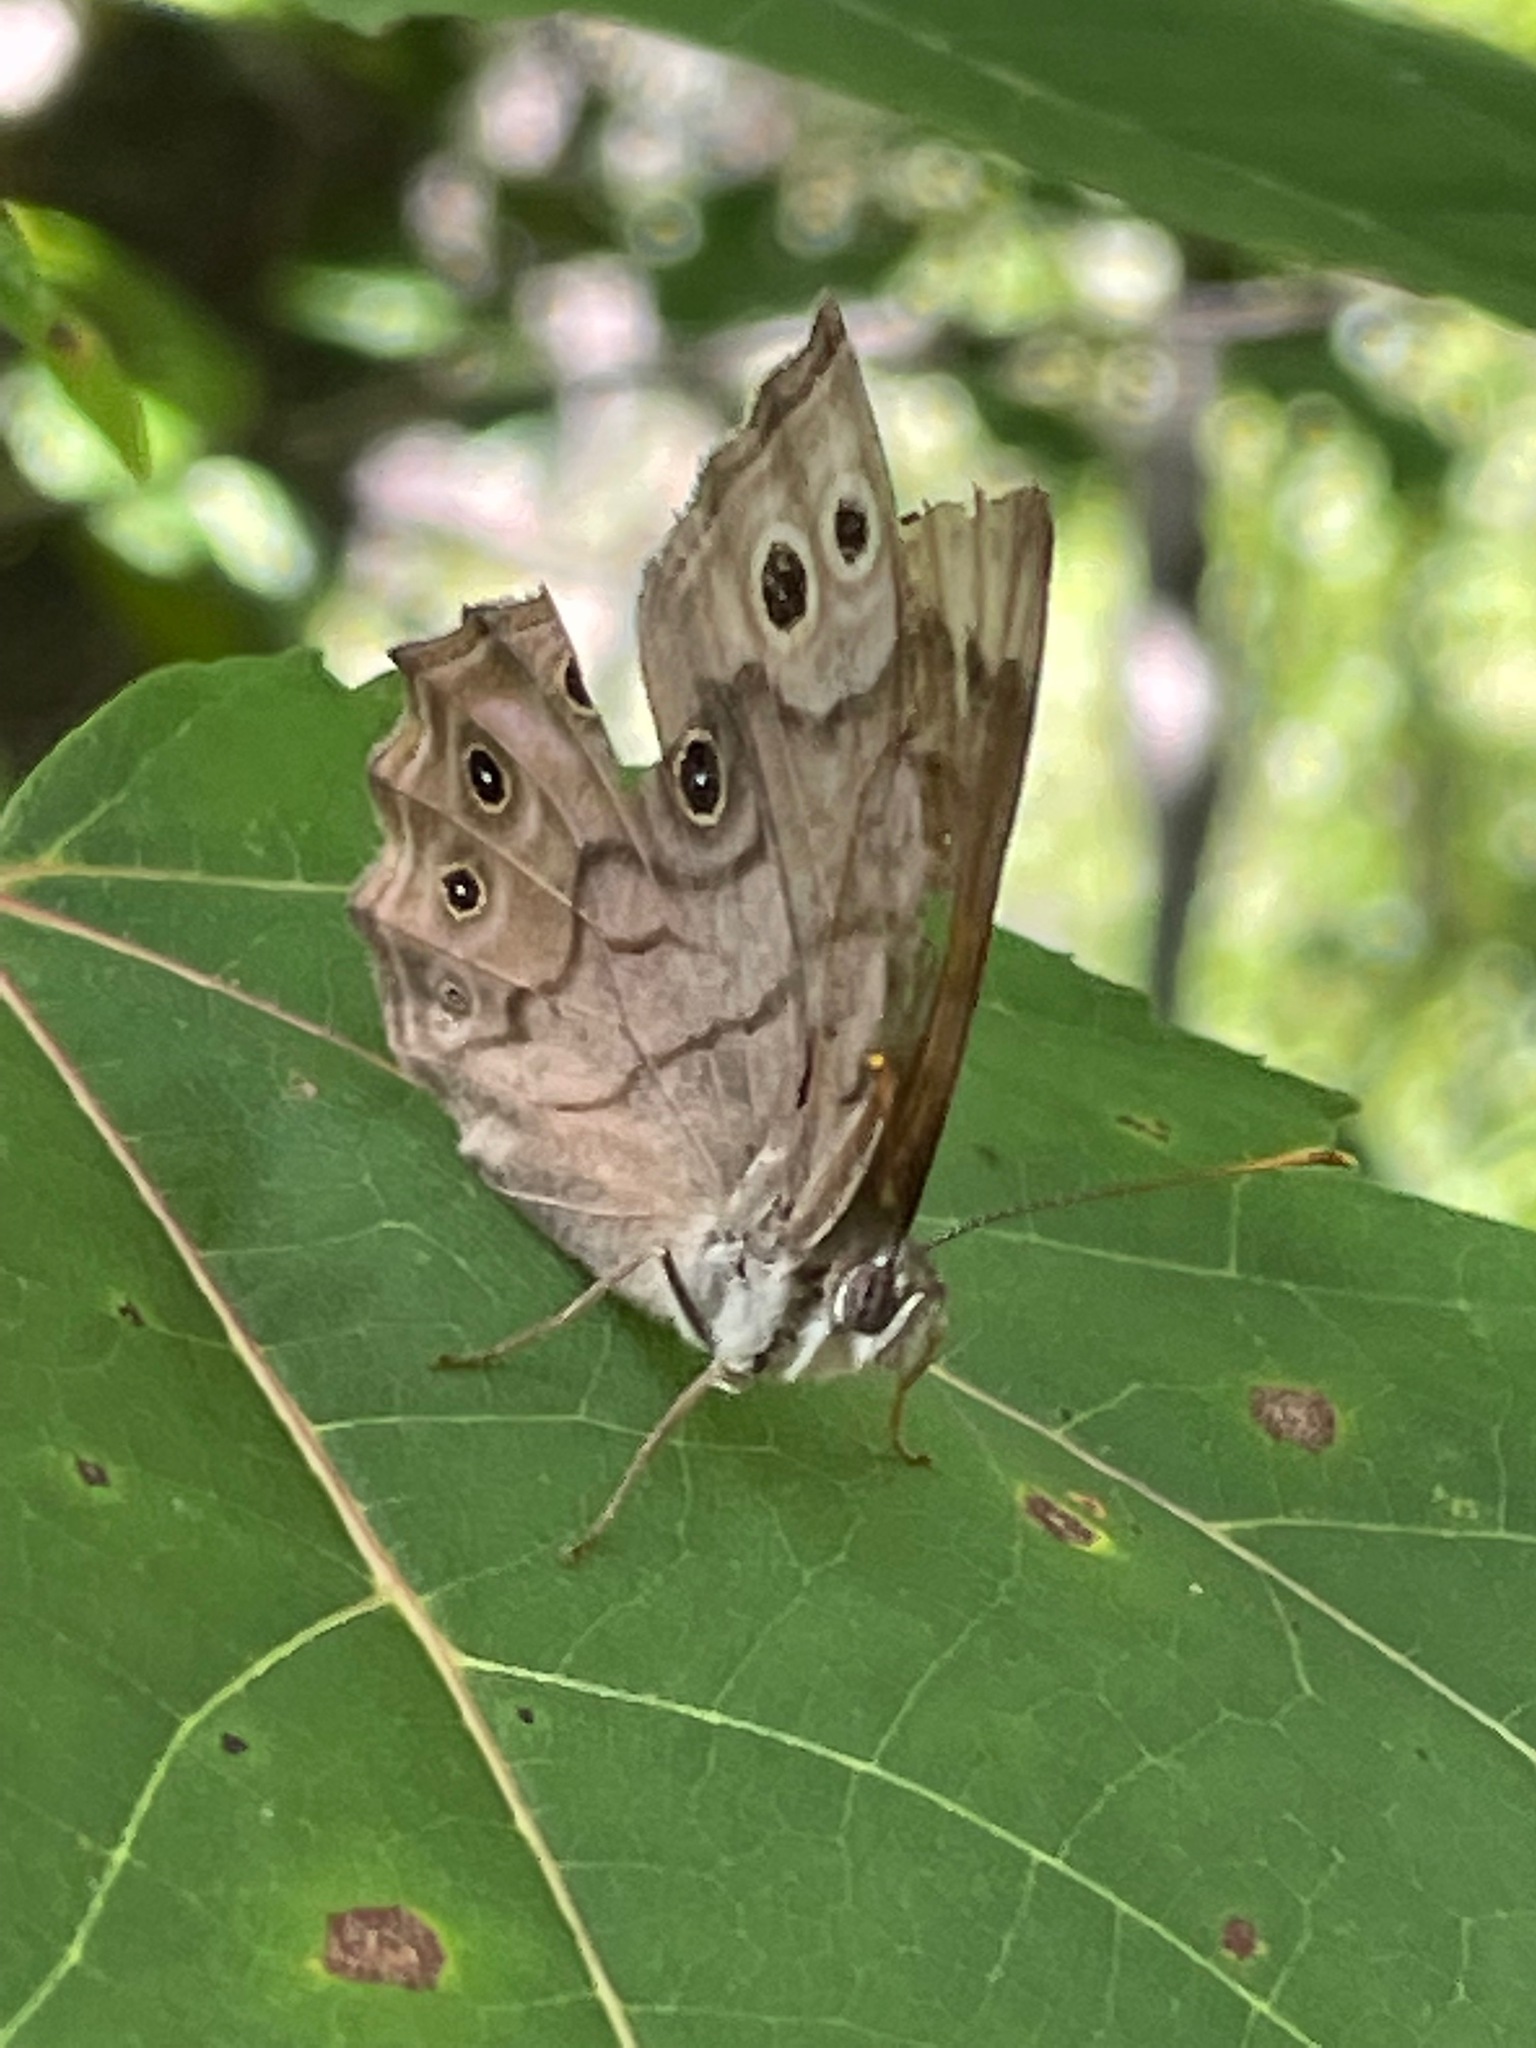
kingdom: Animalia
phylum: Arthropoda
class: Insecta
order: Lepidoptera
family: Nymphalidae
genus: Lethe
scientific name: Lethe anthedon
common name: Northern pearly-eye
